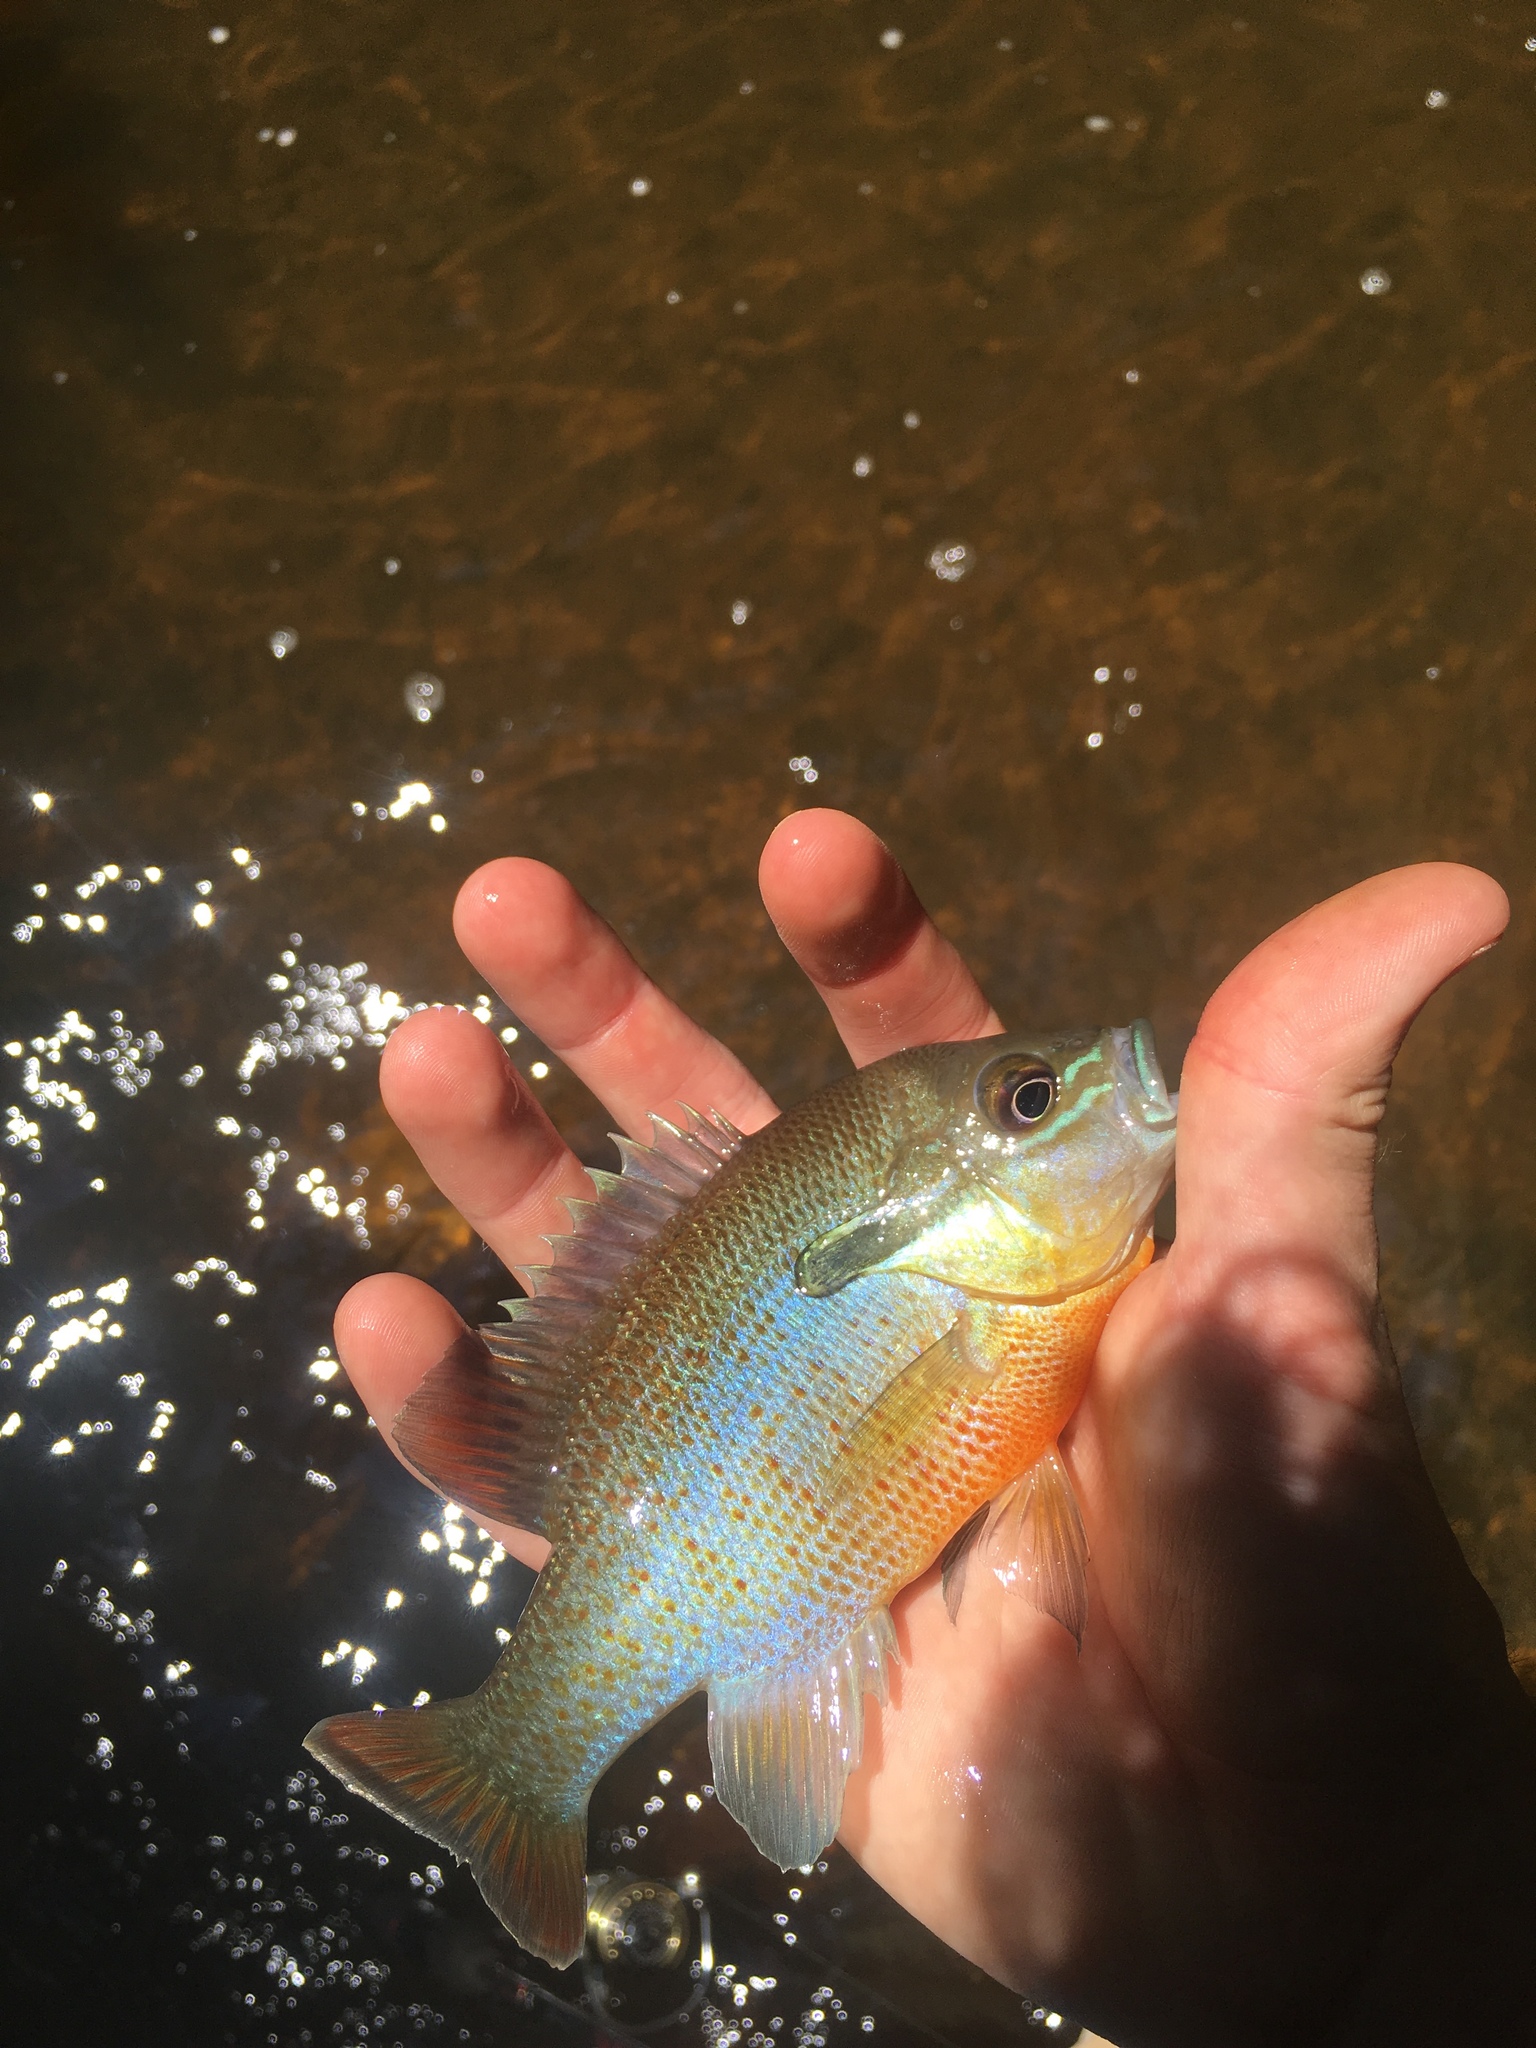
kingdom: Animalia
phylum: Chordata
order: Perciformes
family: Centrarchidae
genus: Lepomis
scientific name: Lepomis auritus
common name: Redbreast sunfish
